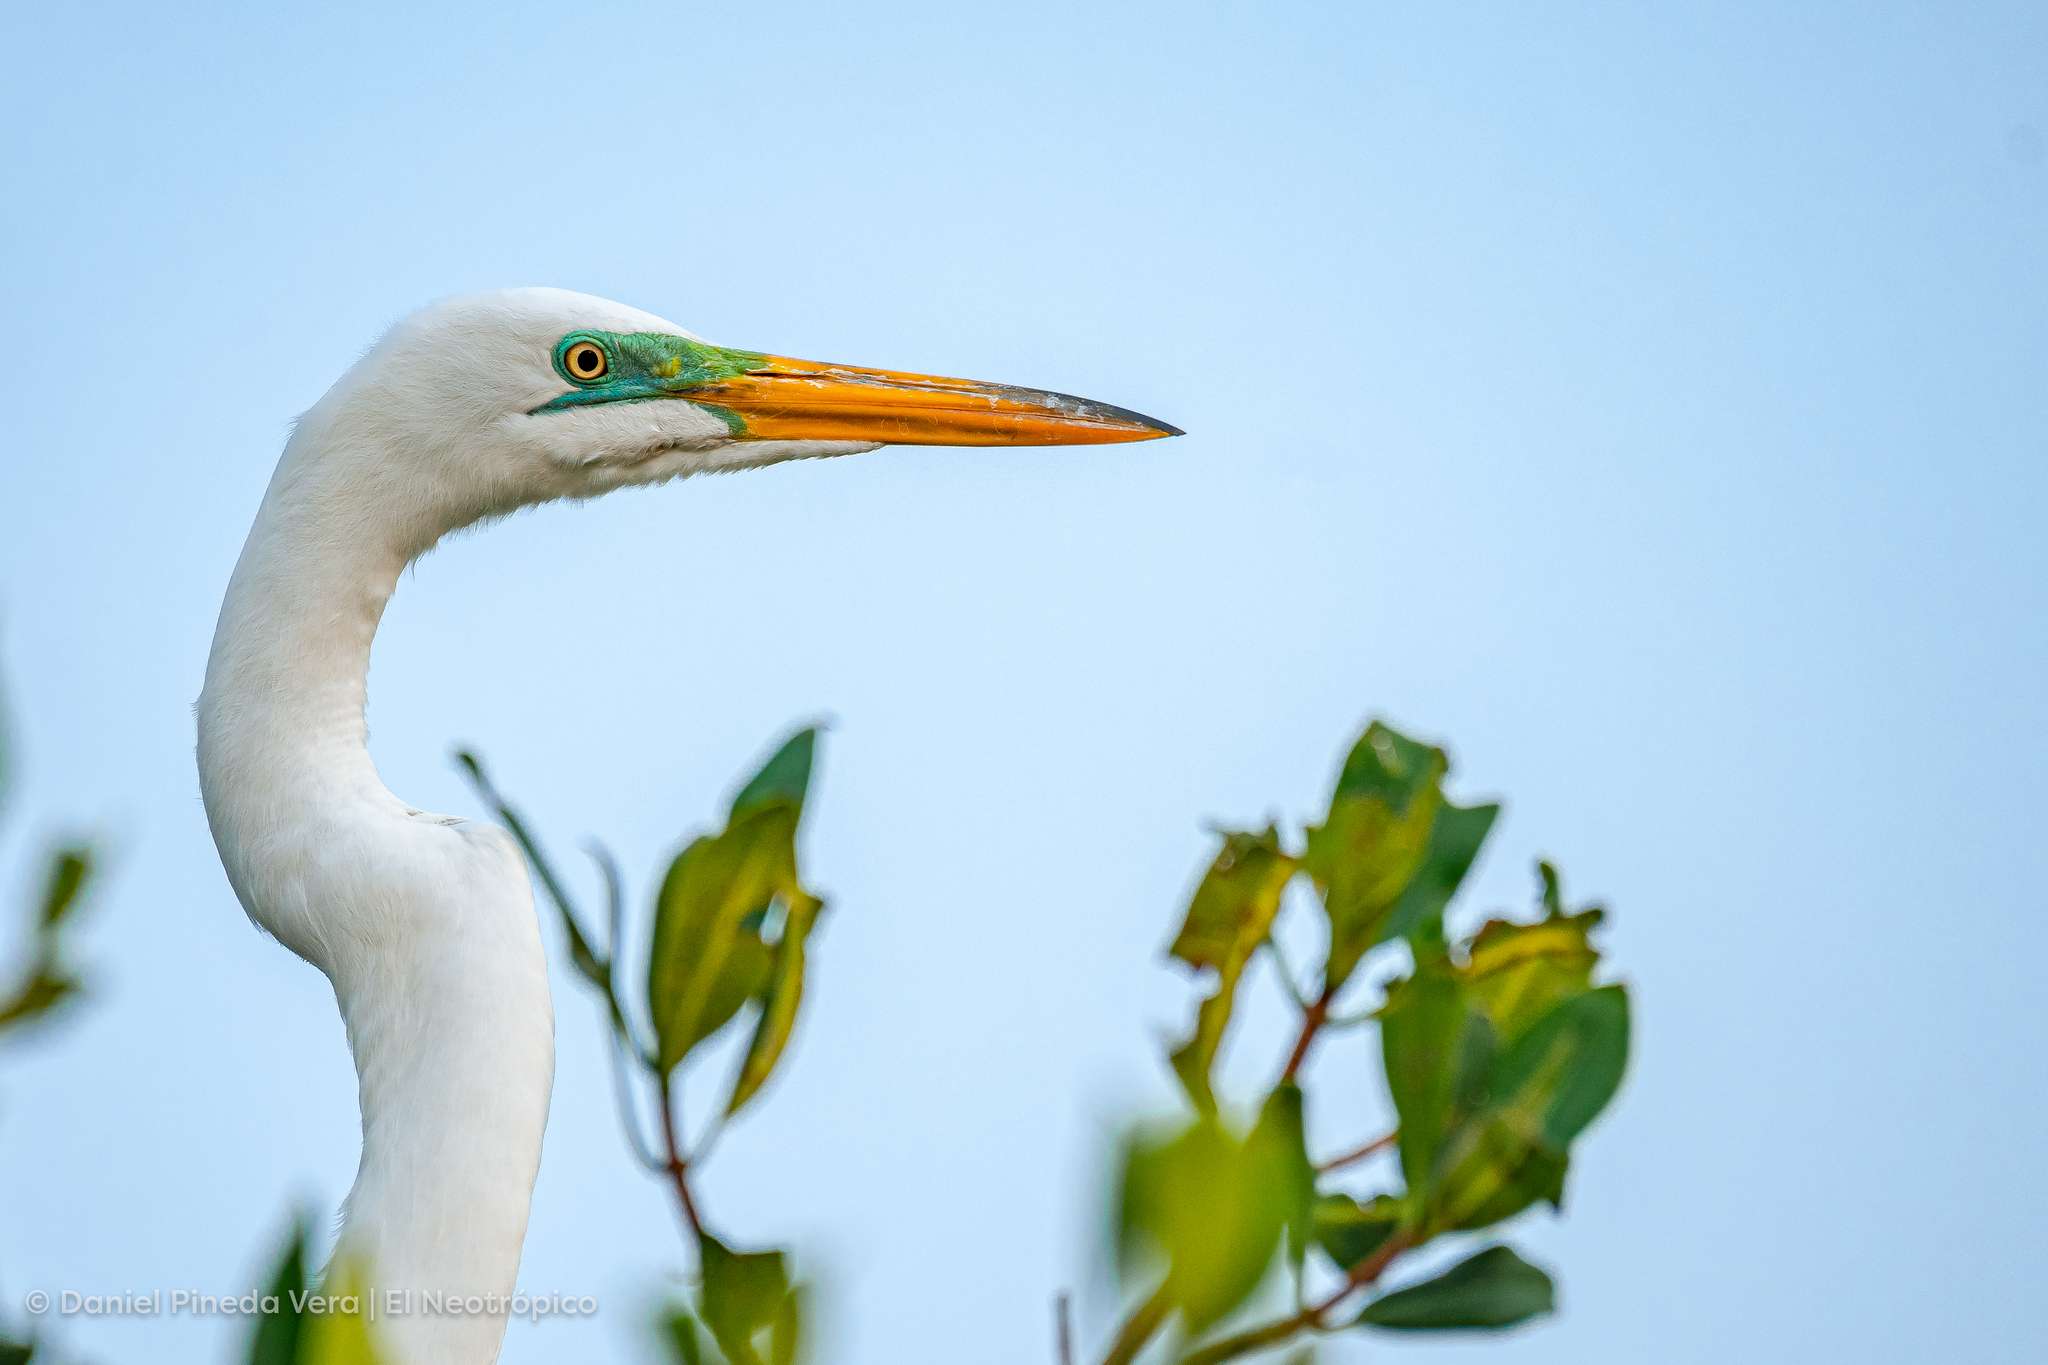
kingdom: Animalia
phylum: Chordata
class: Aves
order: Pelecaniformes
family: Ardeidae
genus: Ardea
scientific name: Ardea alba
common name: Great egret
